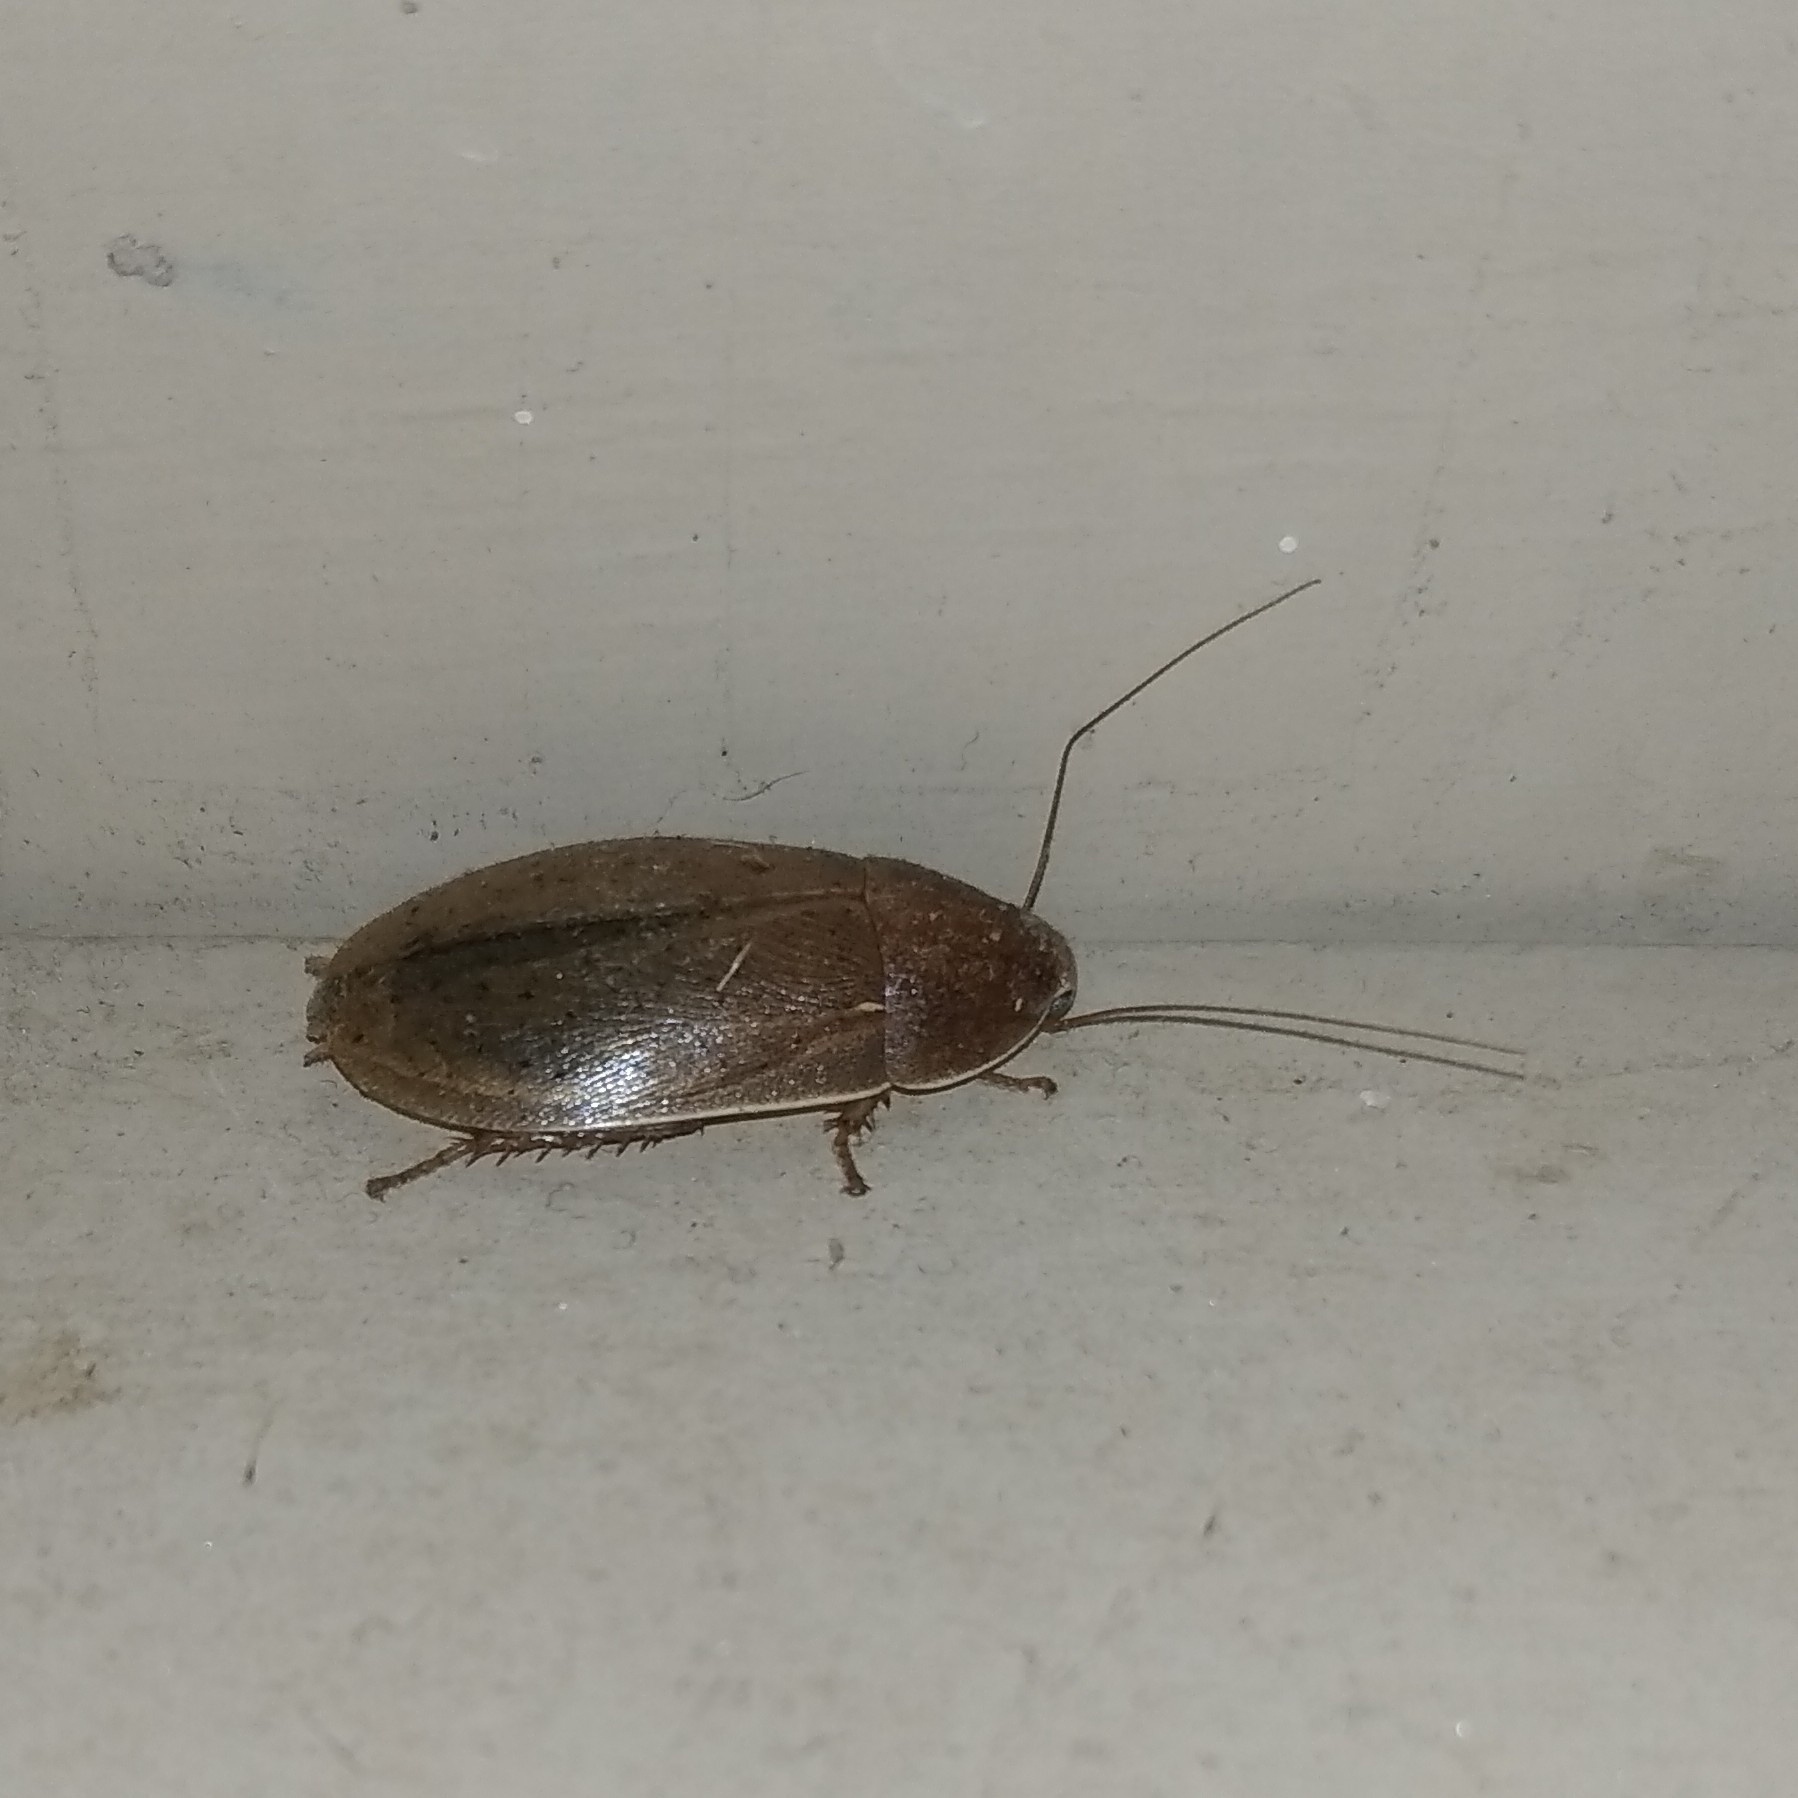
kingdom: Animalia
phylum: Arthropoda
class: Insecta
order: Blattodea
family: Blaberidae
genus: Phlebonotus
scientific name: Phlebonotus
